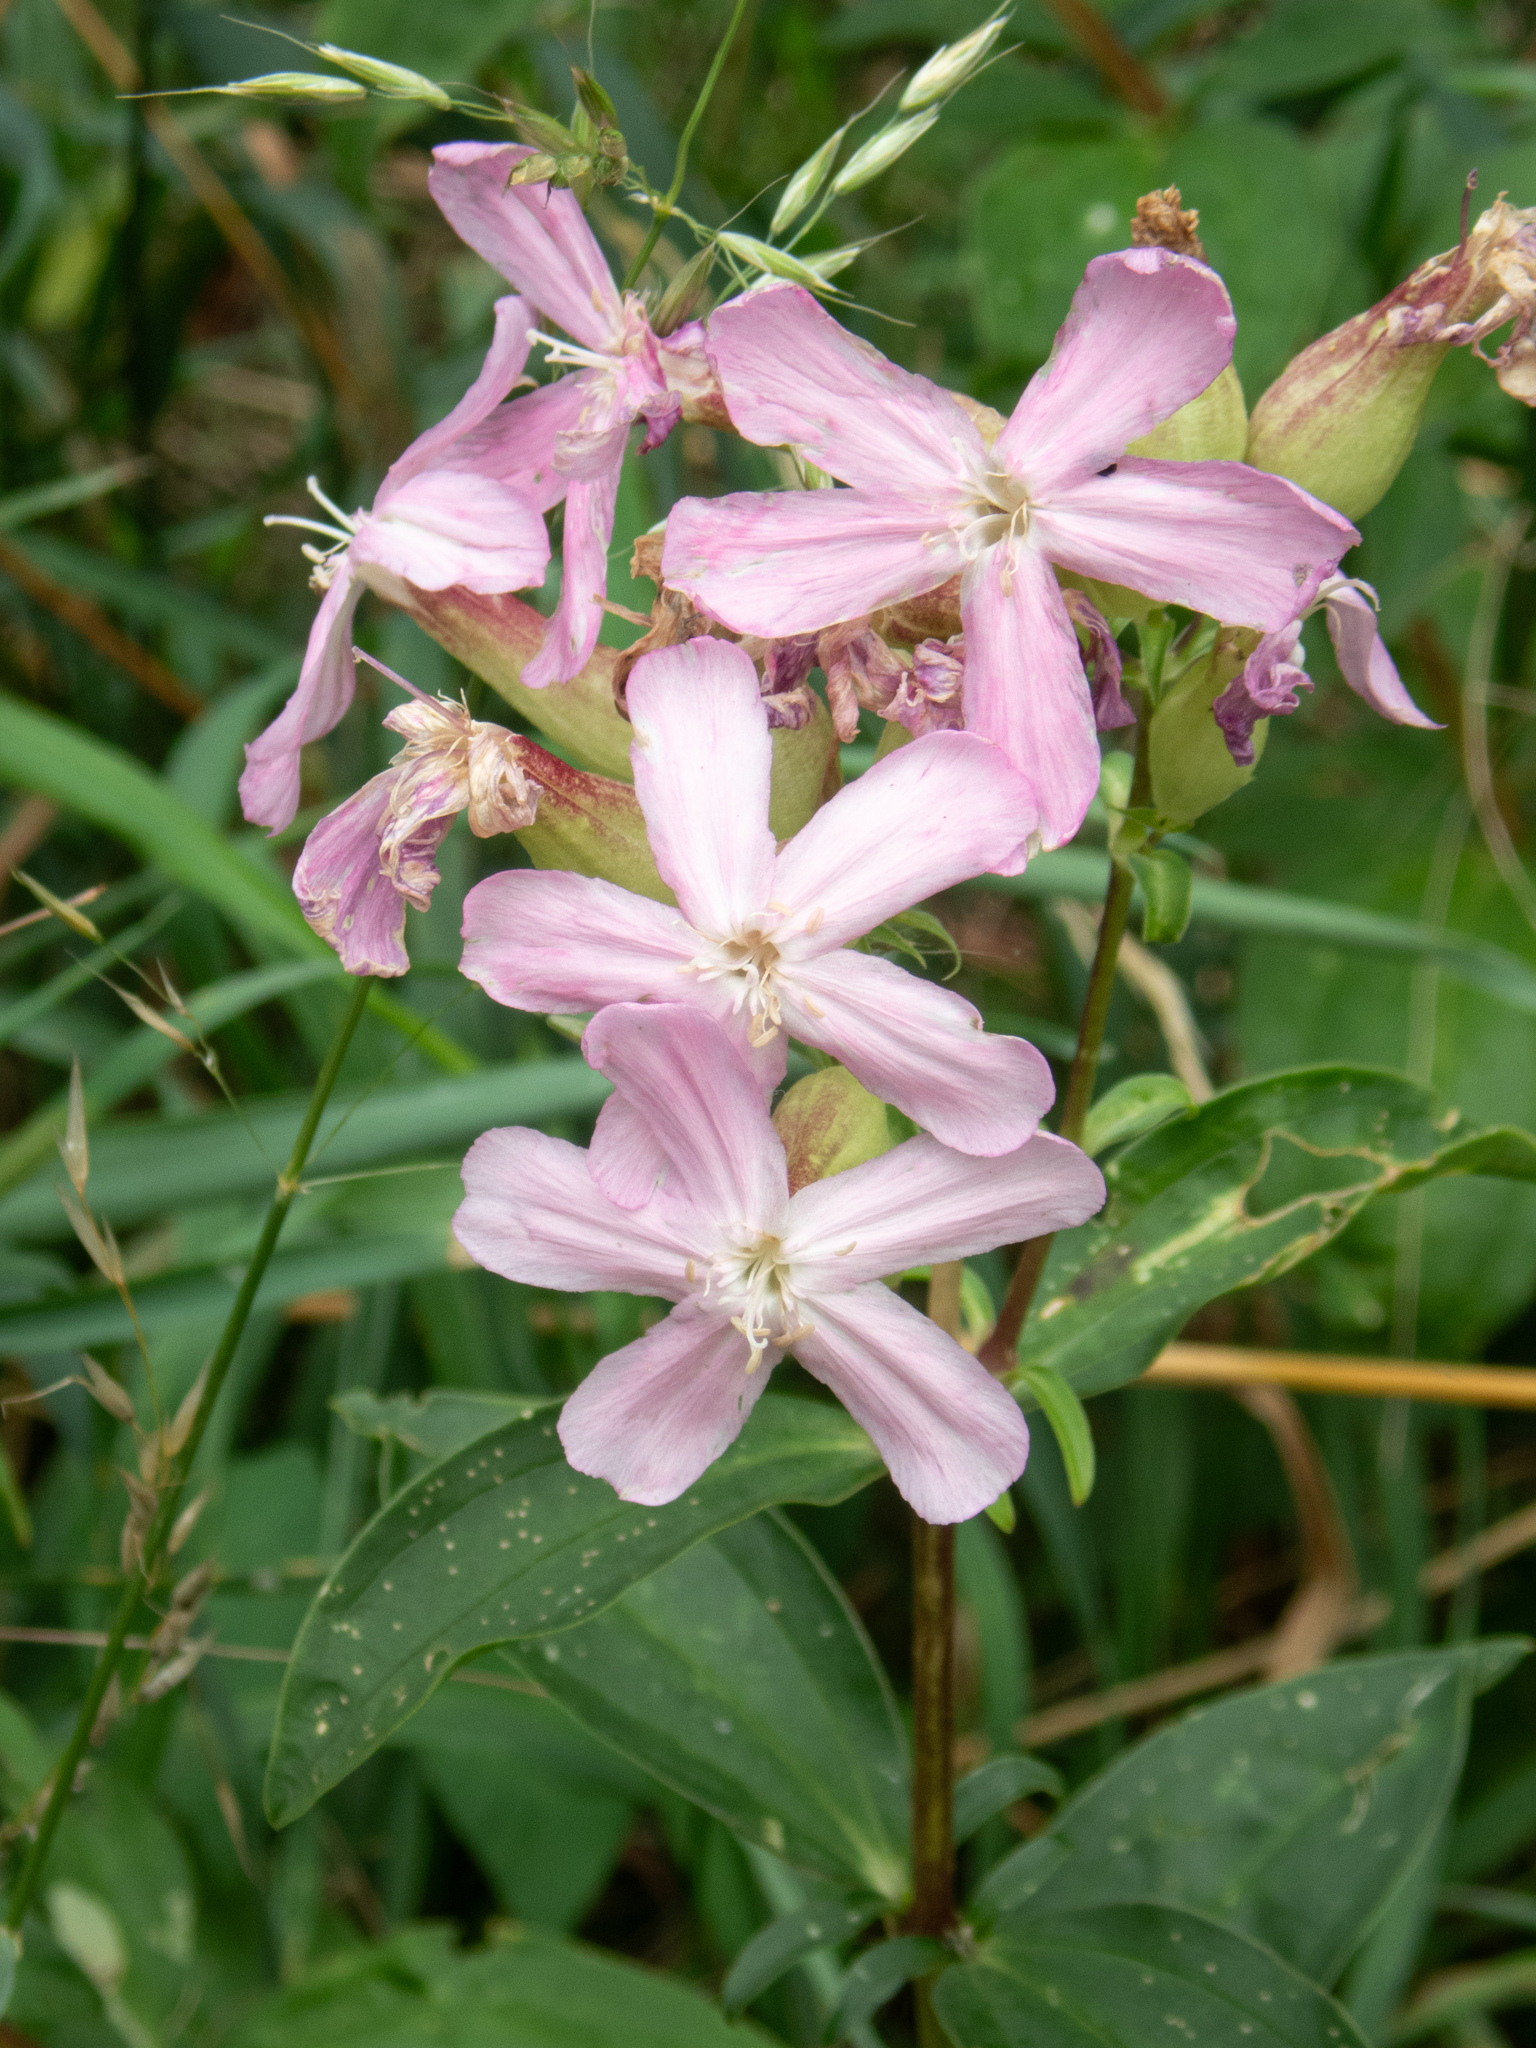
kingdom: Plantae
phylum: Tracheophyta
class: Magnoliopsida
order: Caryophyllales
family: Caryophyllaceae
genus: Saponaria
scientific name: Saponaria officinalis
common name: Soapwort
